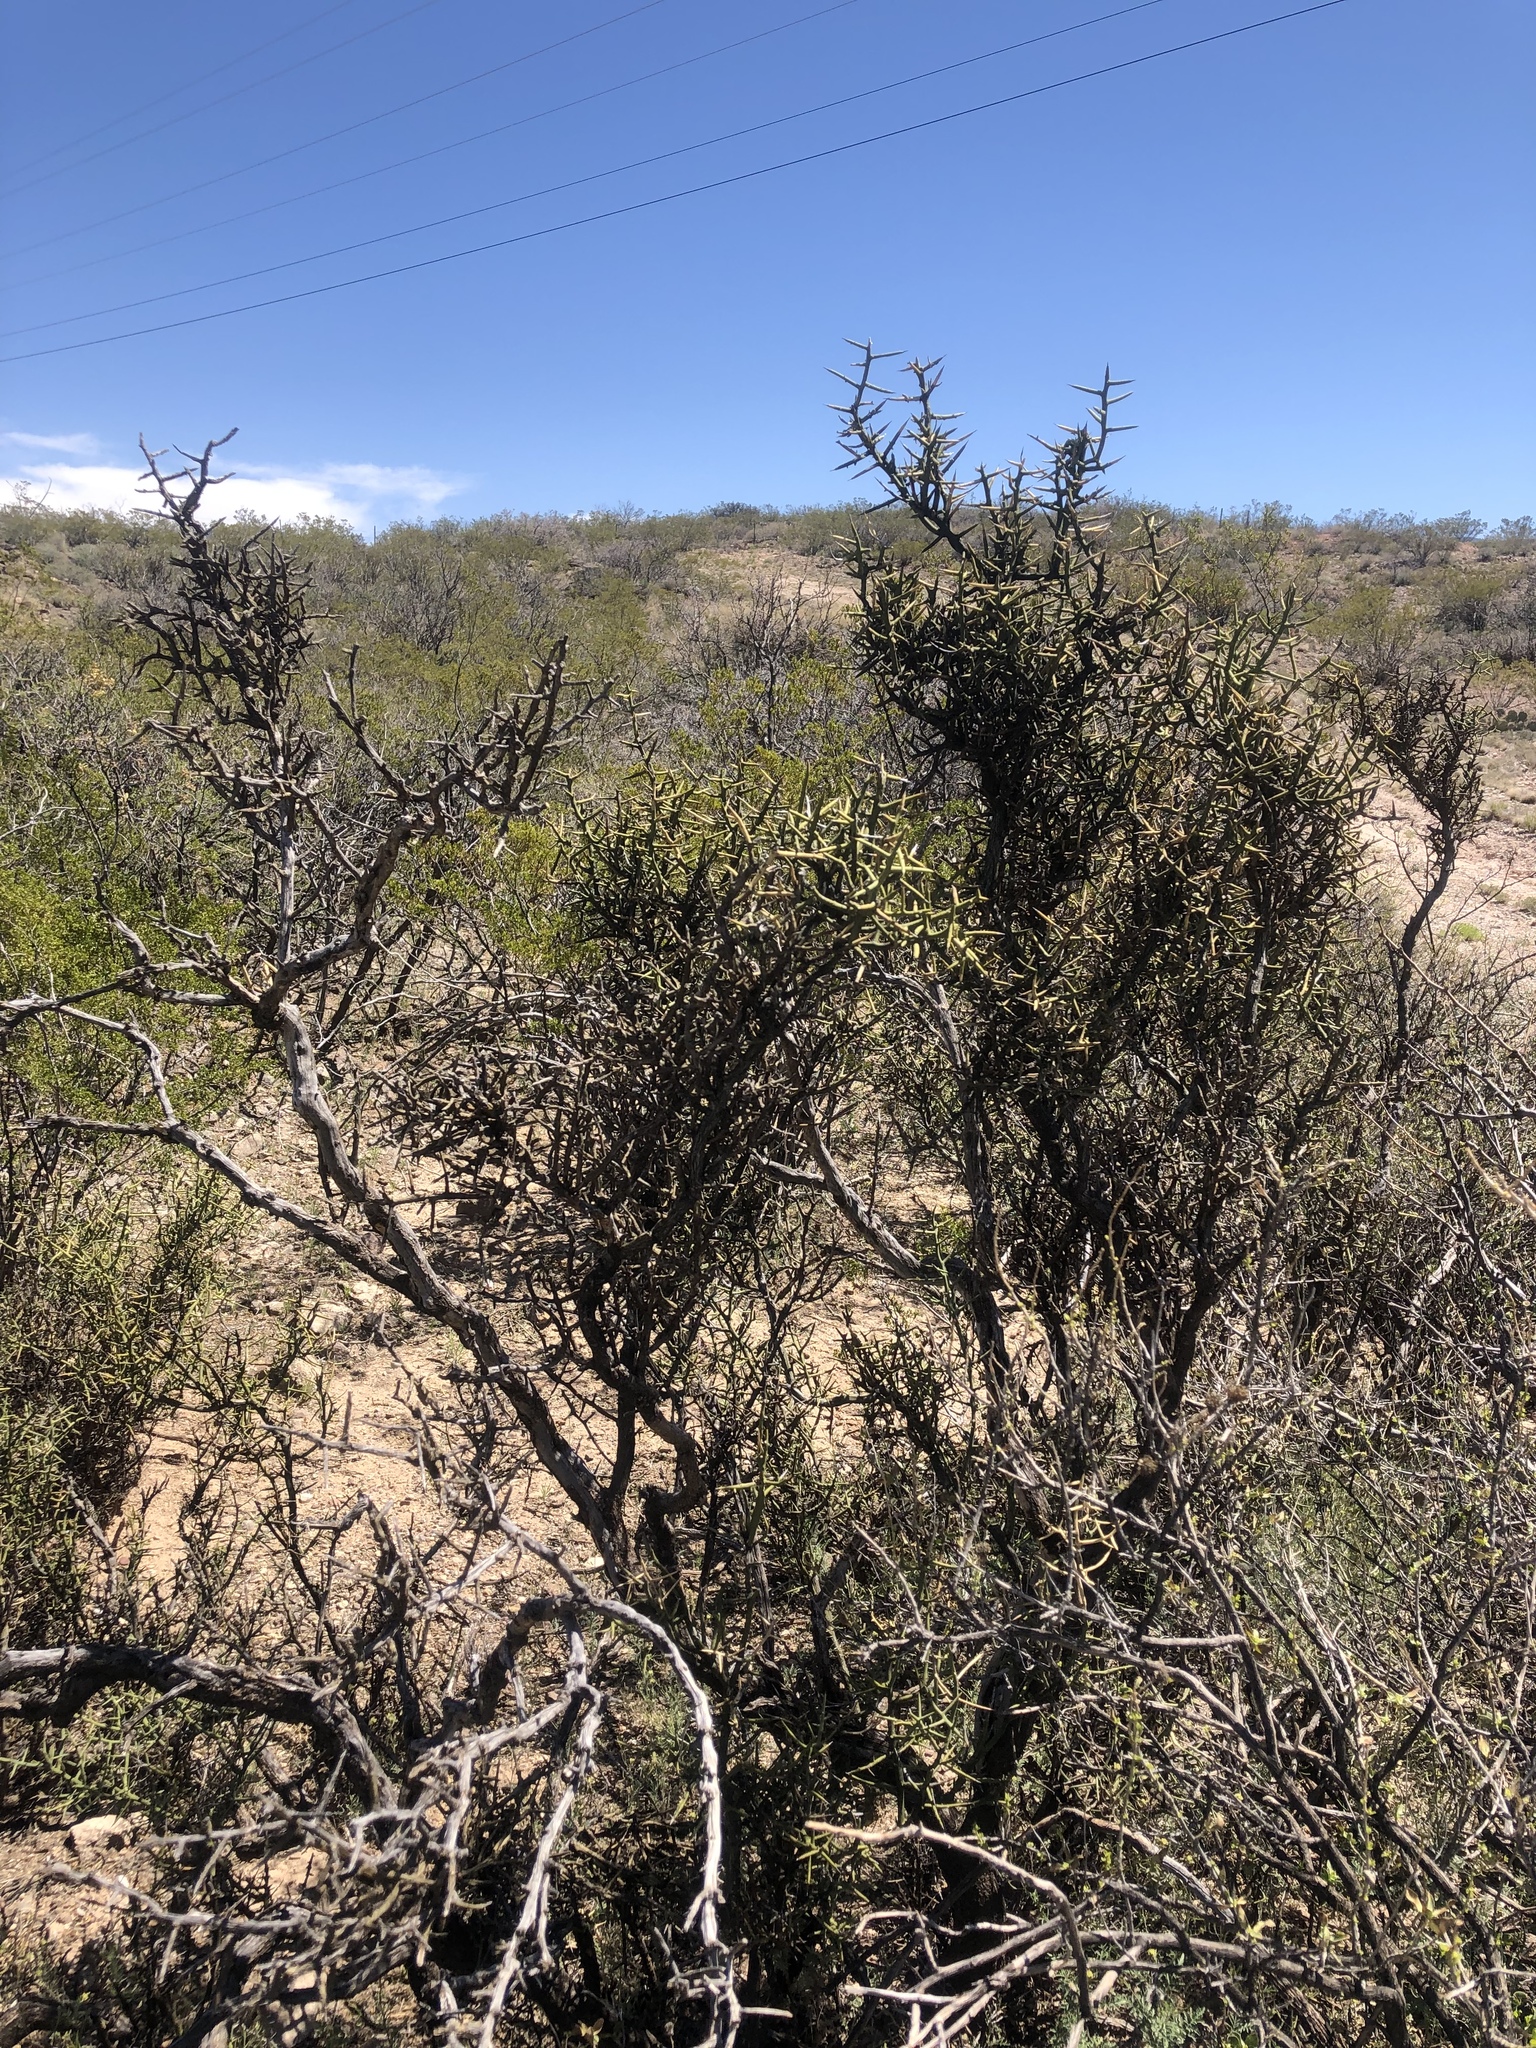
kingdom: Plantae
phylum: Tracheophyta
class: Magnoliopsida
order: Brassicales
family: Koeberliniaceae
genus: Koeberlinia
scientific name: Koeberlinia spinosa
